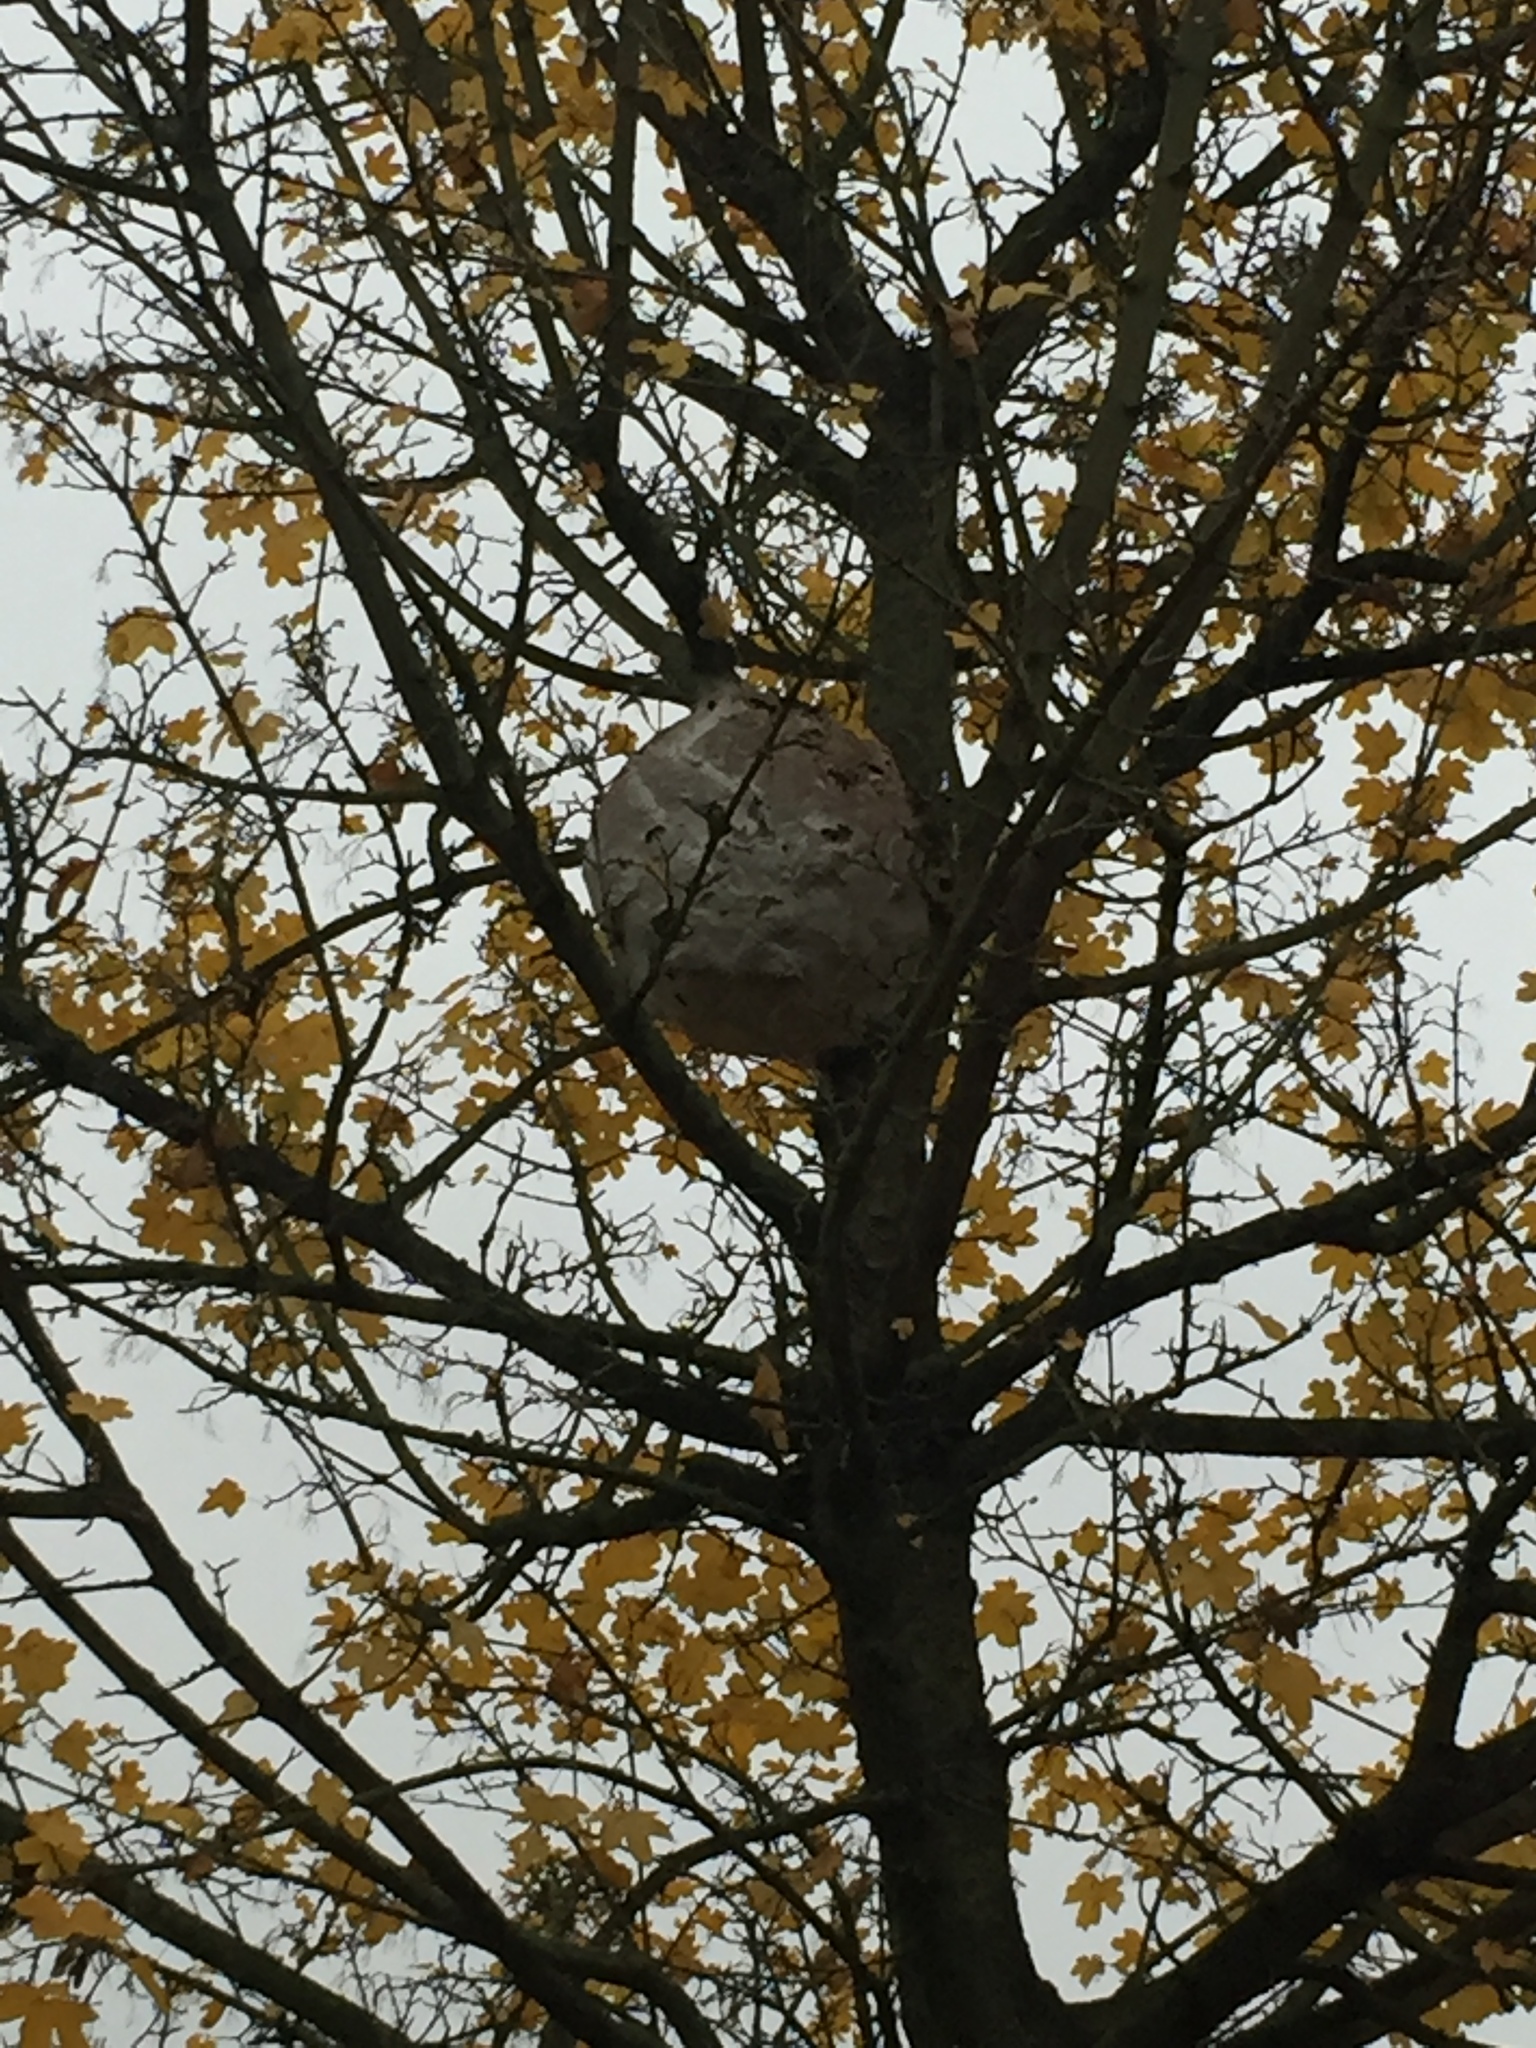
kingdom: Animalia
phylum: Arthropoda
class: Insecta
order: Hymenoptera
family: Vespidae
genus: Vespa
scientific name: Vespa velutina
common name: Asian hornet
